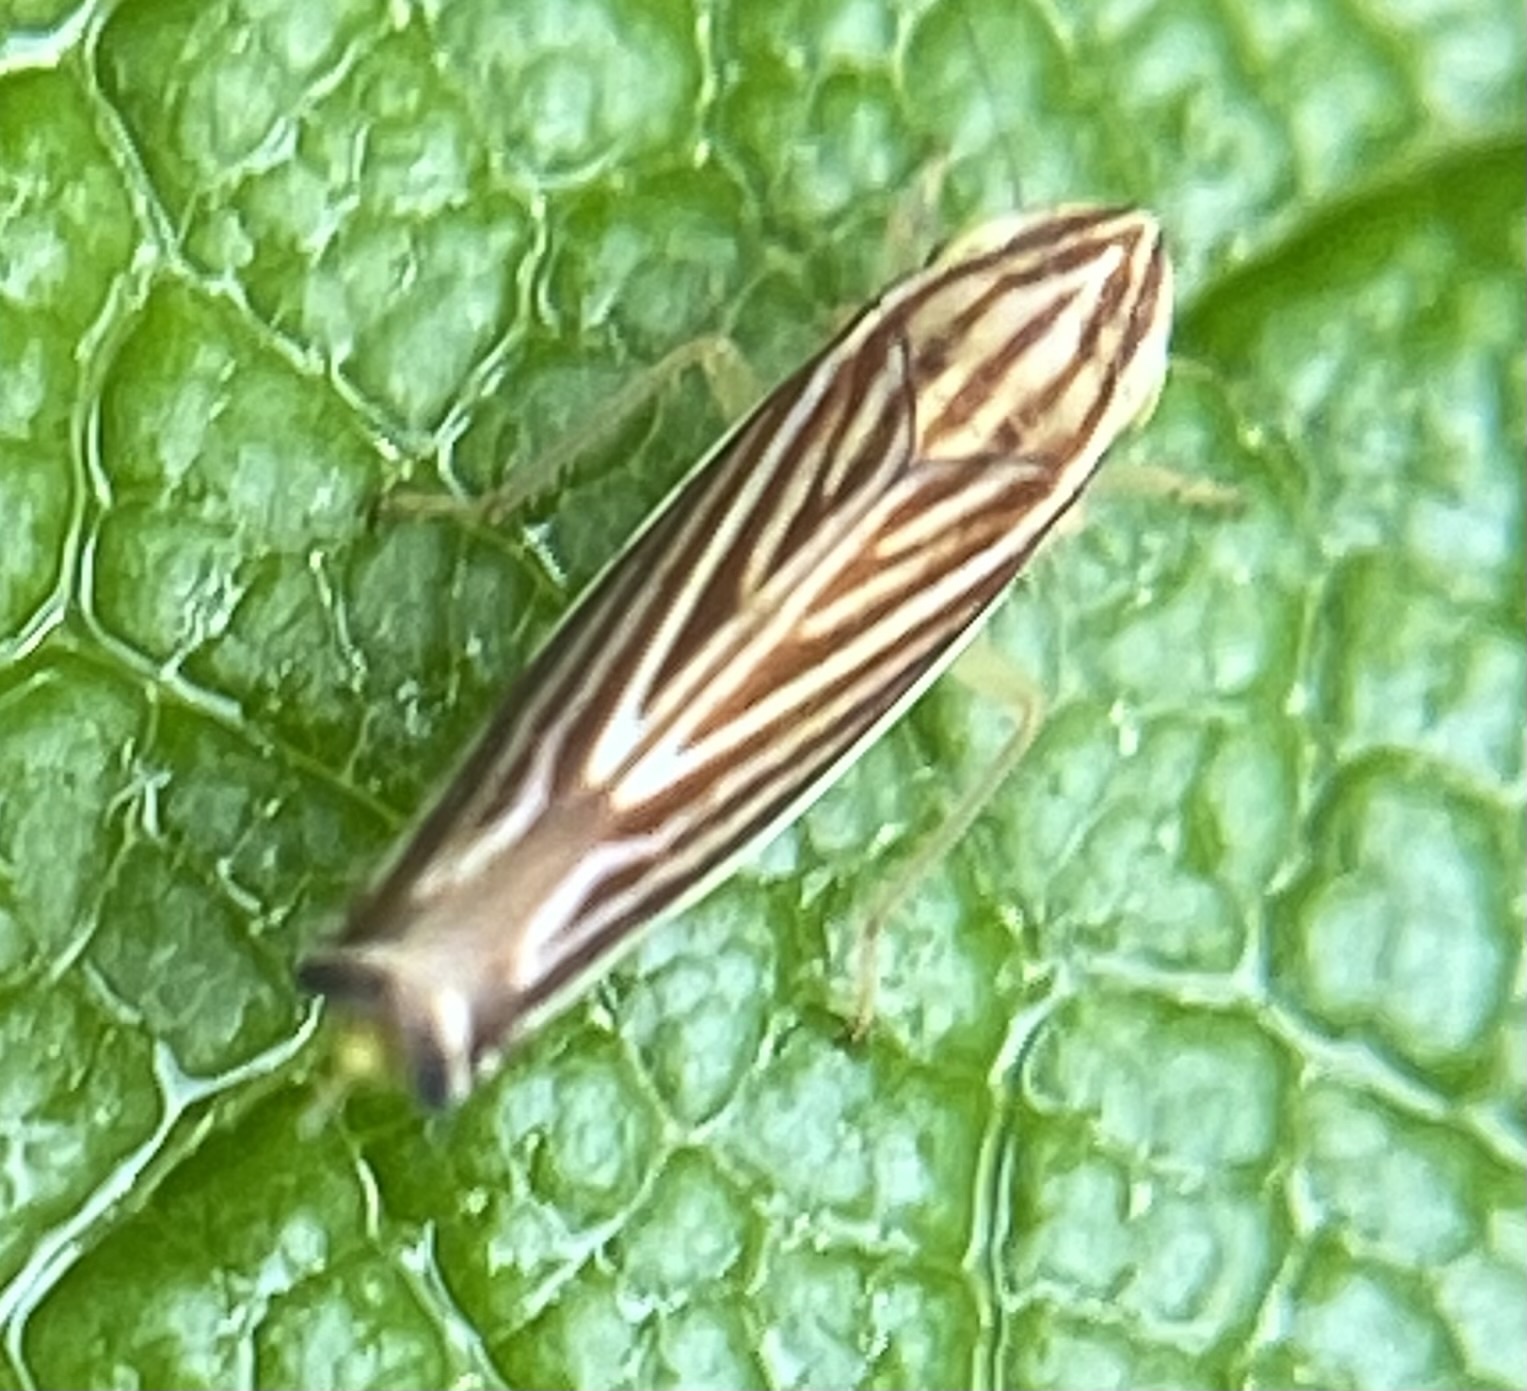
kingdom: Animalia
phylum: Arthropoda
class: Insecta
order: Hemiptera
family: Cicadellidae
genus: Sibovia
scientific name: Sibovia occatoria
